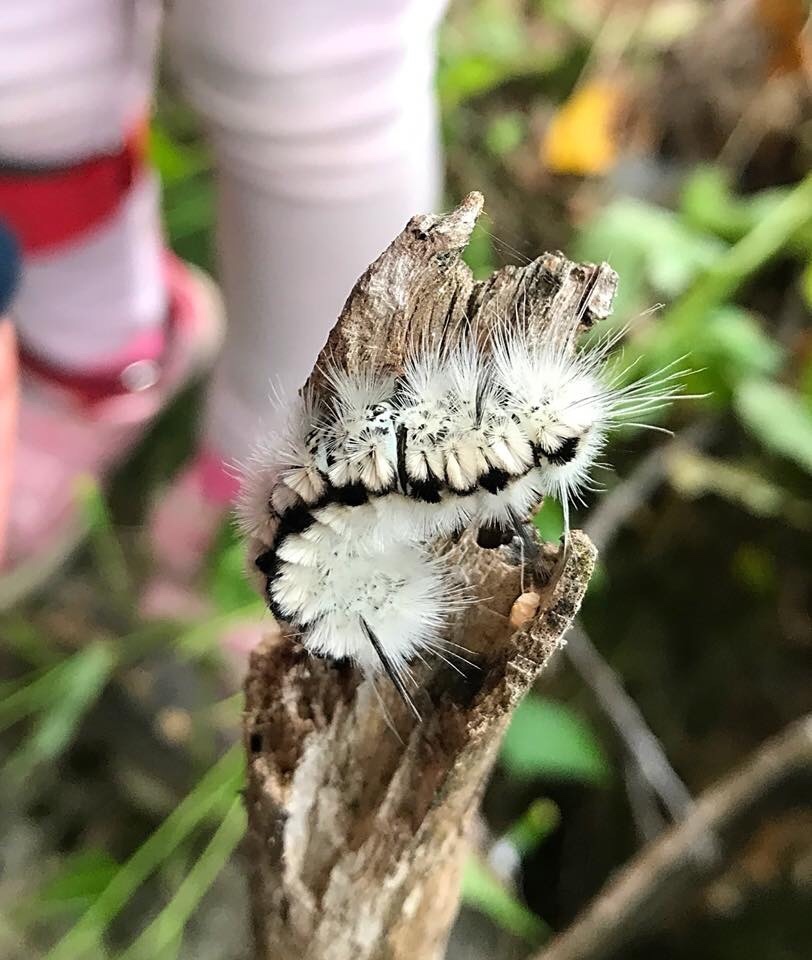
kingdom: Animalia
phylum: Arthropoda
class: Insecta
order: Lepidoptera
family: Erebidae
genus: Lophocampa
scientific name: Lophocampa caryae
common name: Hickory tussock moth
